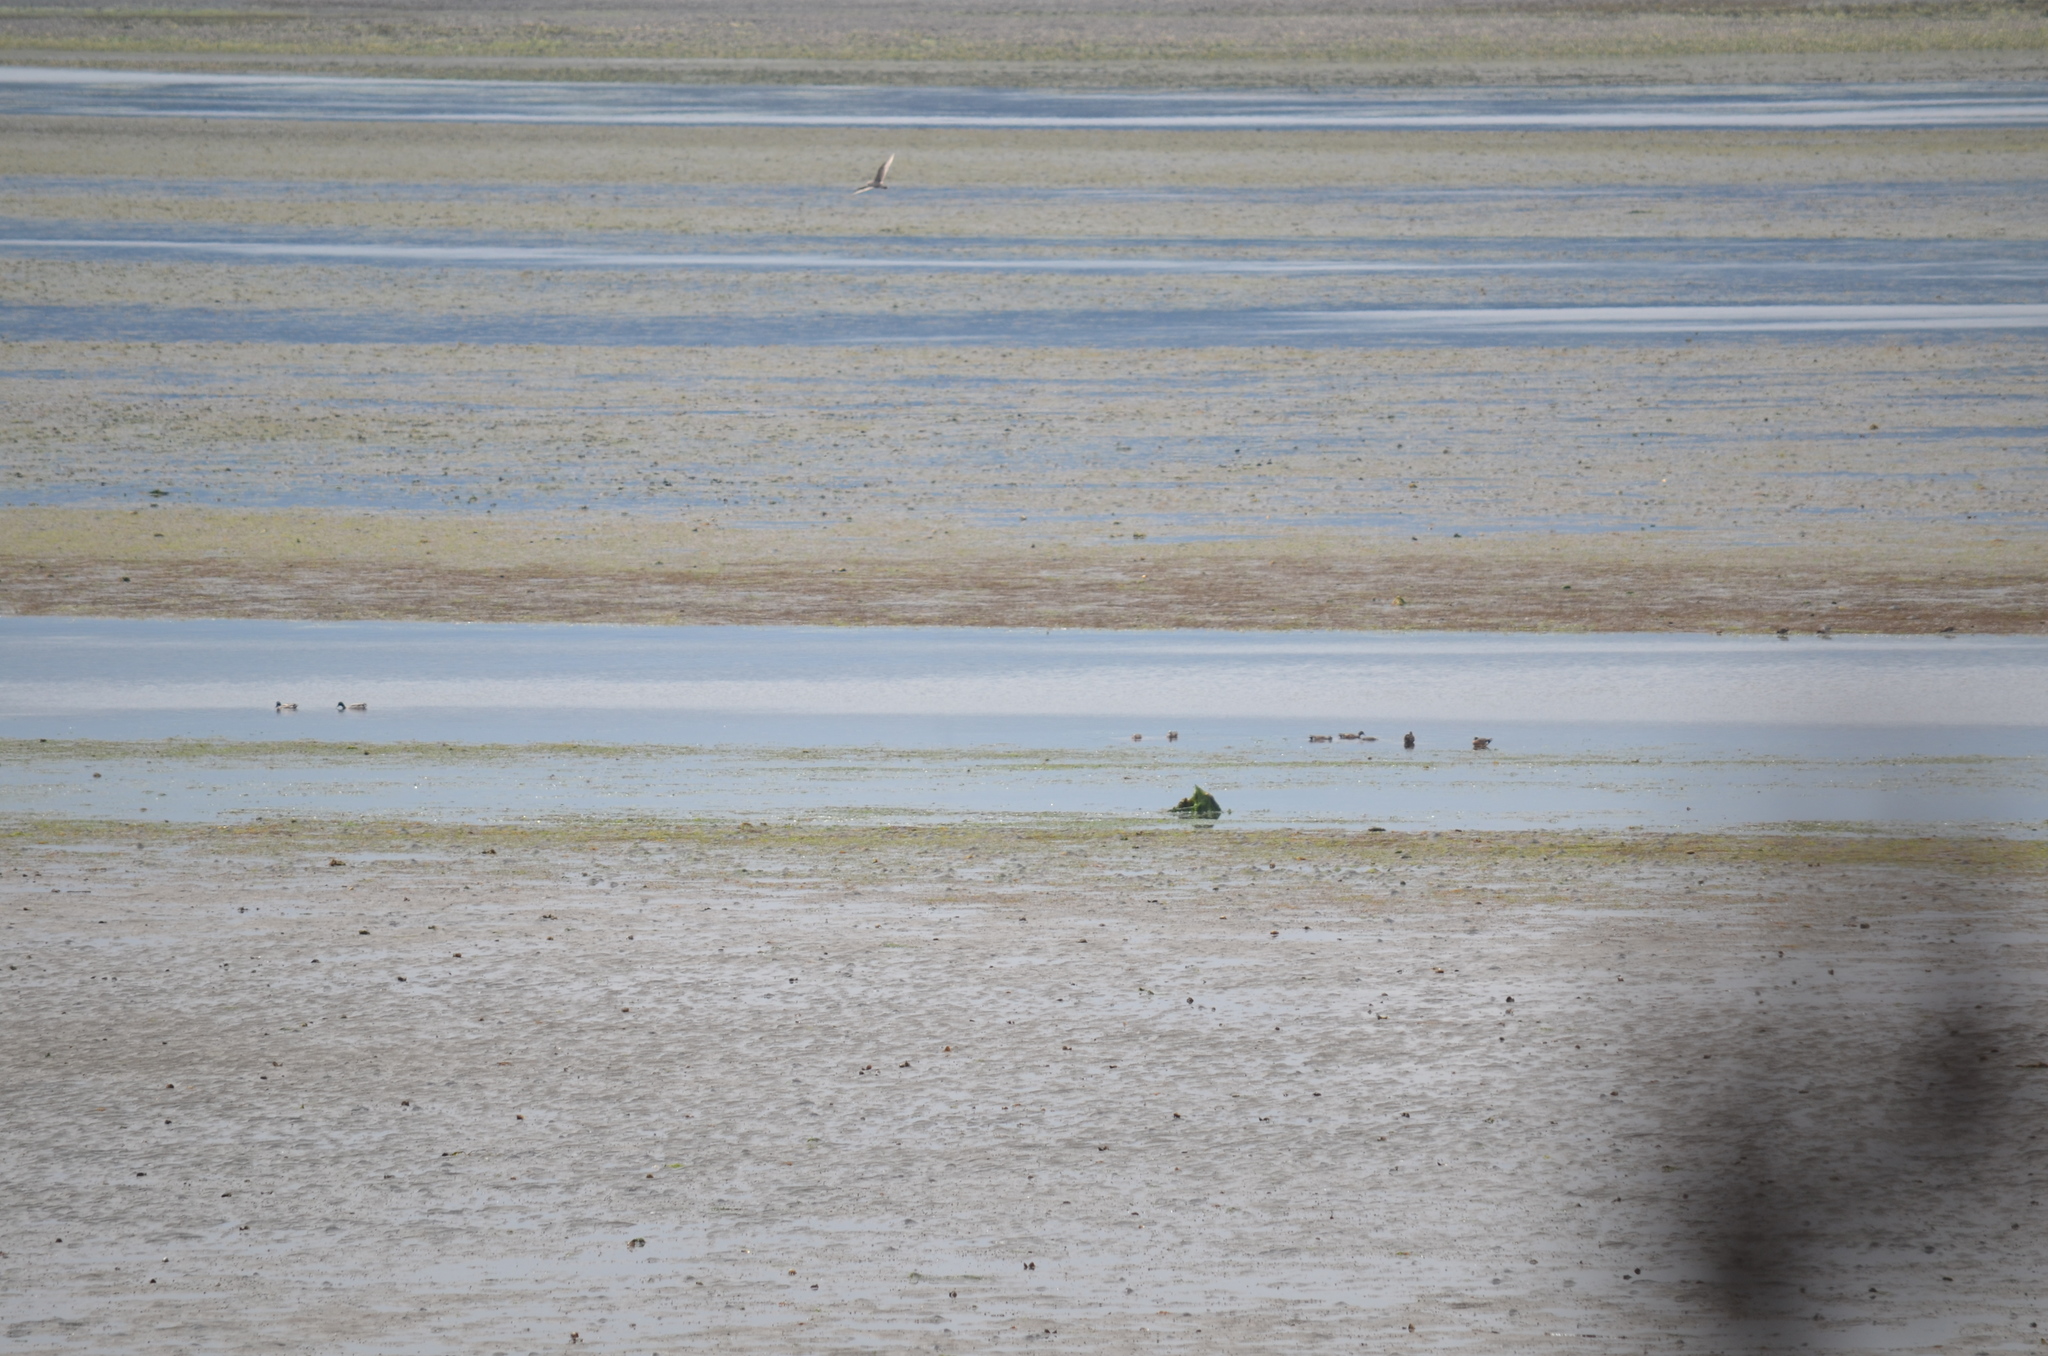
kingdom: Animalia
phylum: Chordata
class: Aves
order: Anseriformes
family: Anatidae
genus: Mareca
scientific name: Mareca americana
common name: American wigeon
